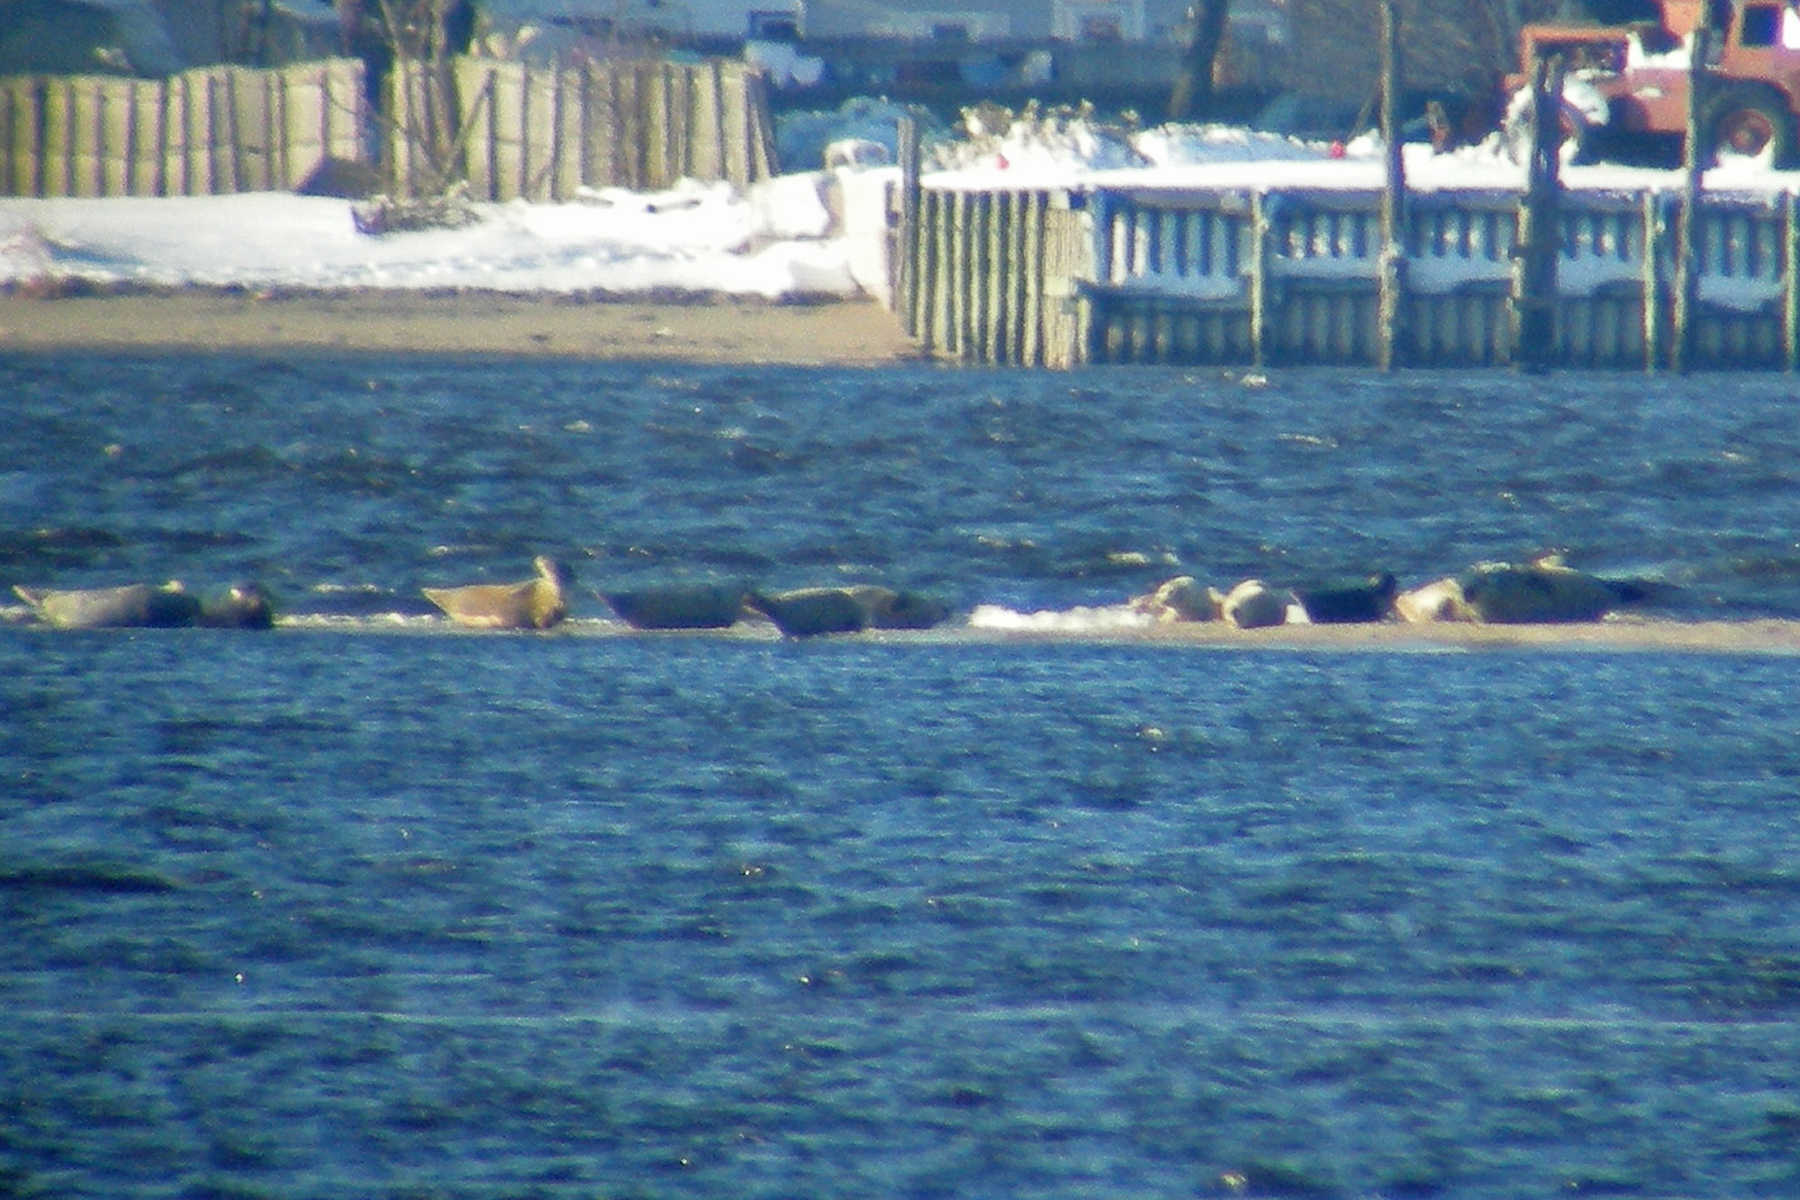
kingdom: Animalia
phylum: Chordata
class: Mammalia
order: Carnivora
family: Phocidae
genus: Phoca
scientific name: Phoca vitulina
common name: Harbor seal
